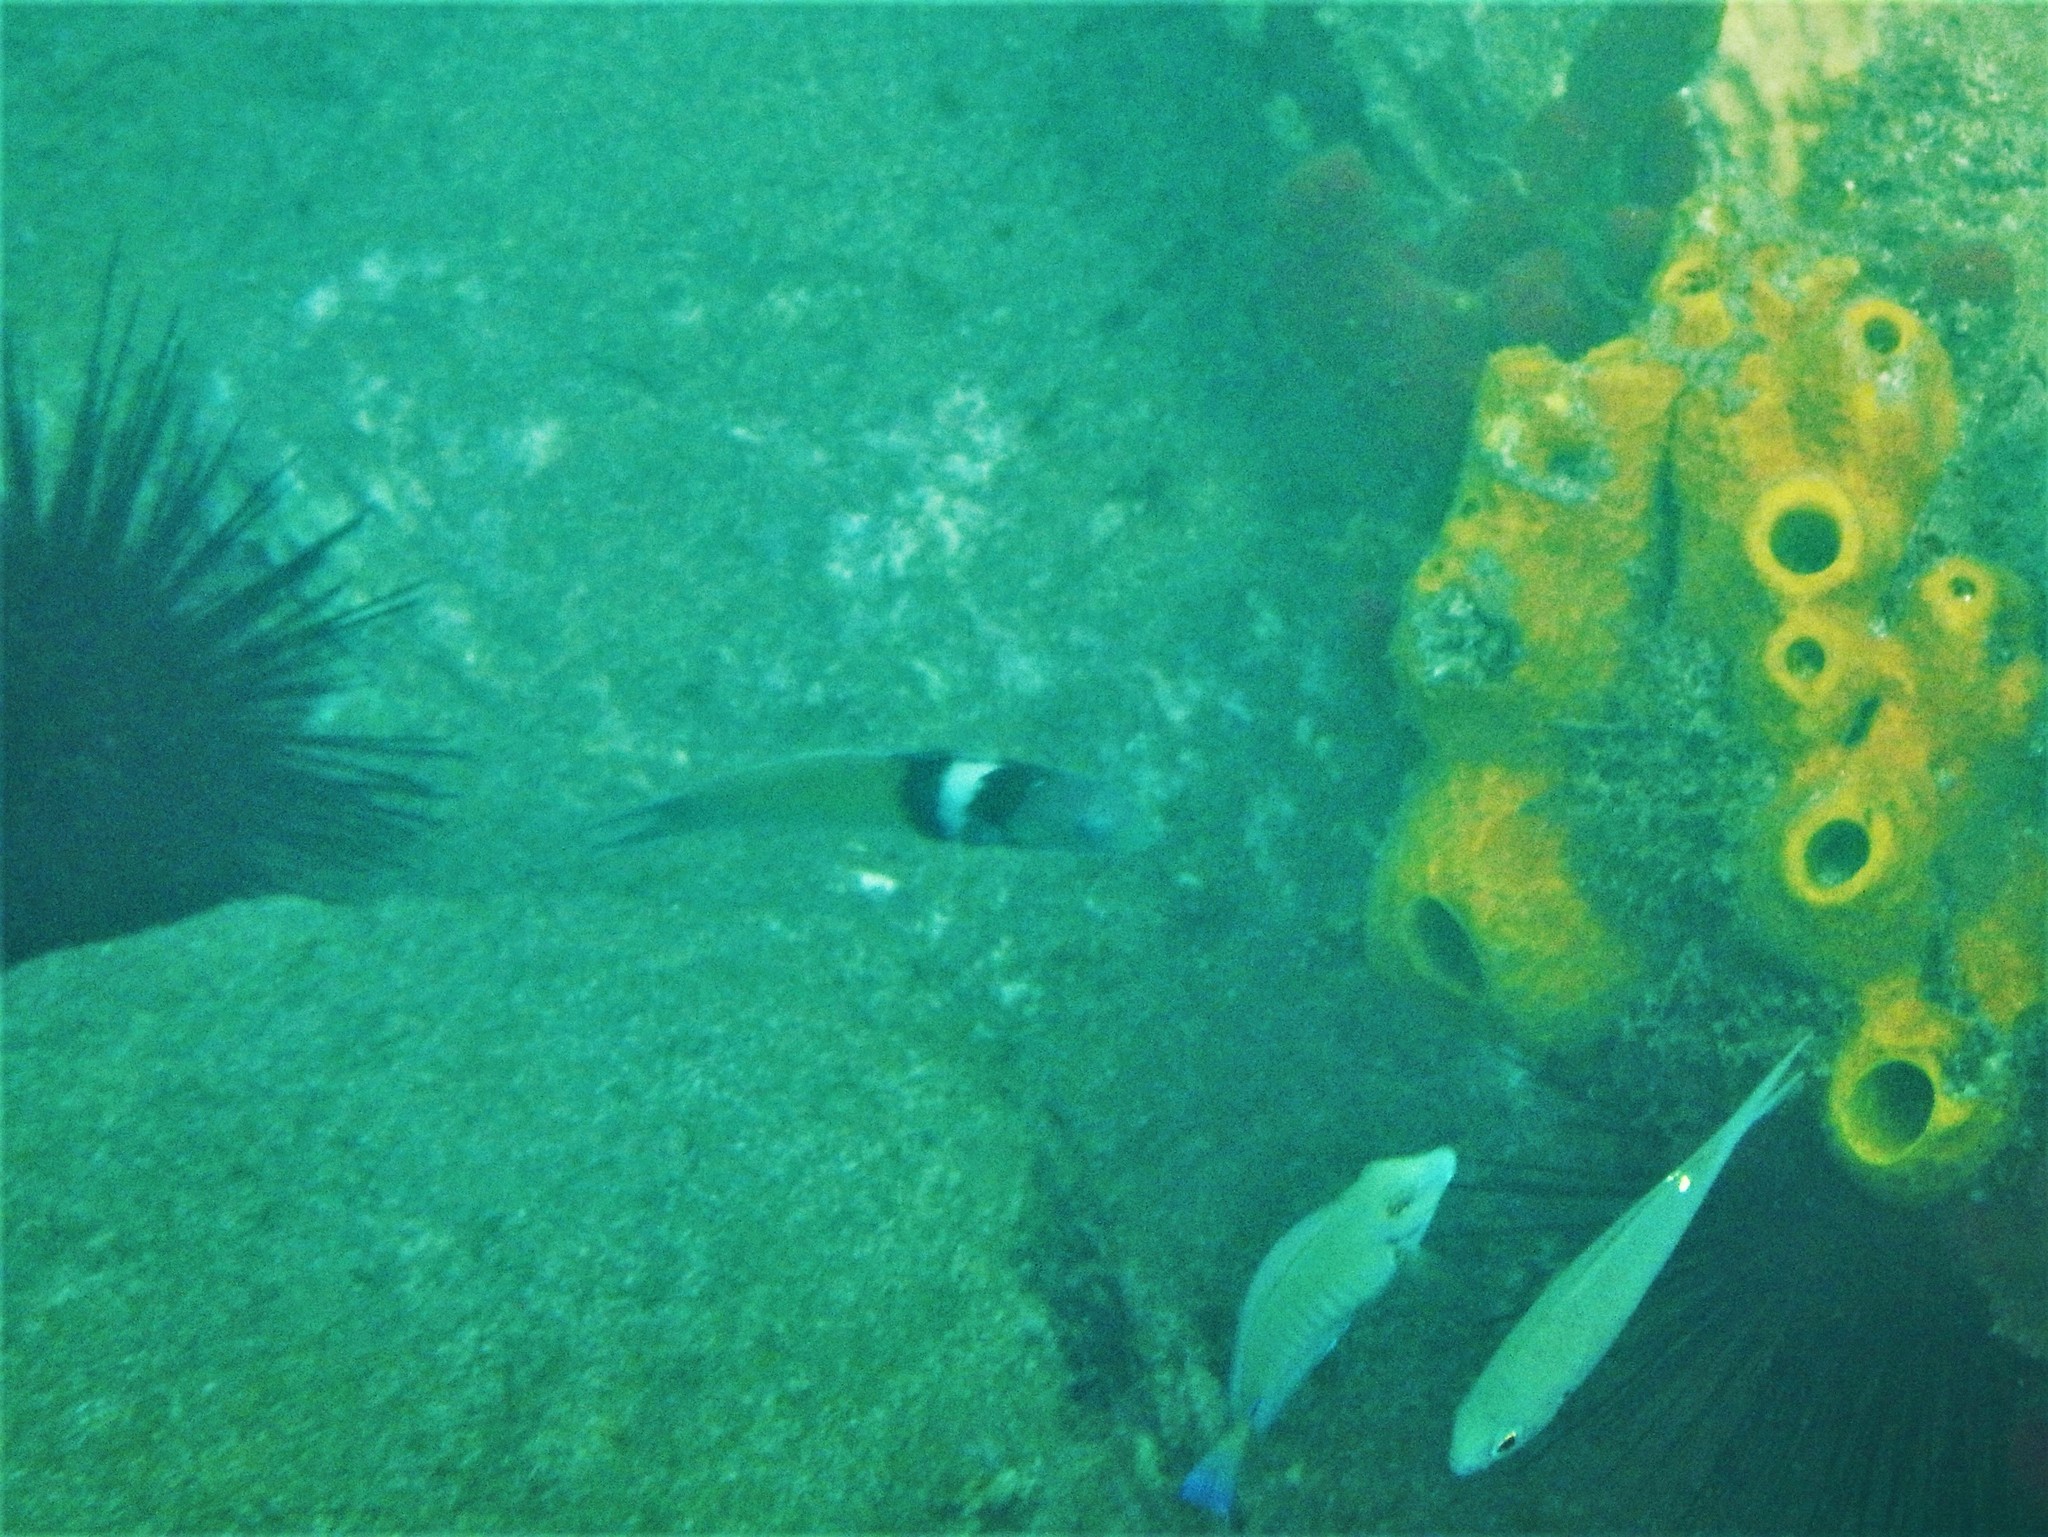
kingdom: Animalia
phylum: Chordata
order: Perciformes
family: Labridae
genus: Thalassoma
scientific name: Thalassoma bifasciatum
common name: Bluehead wrasse
